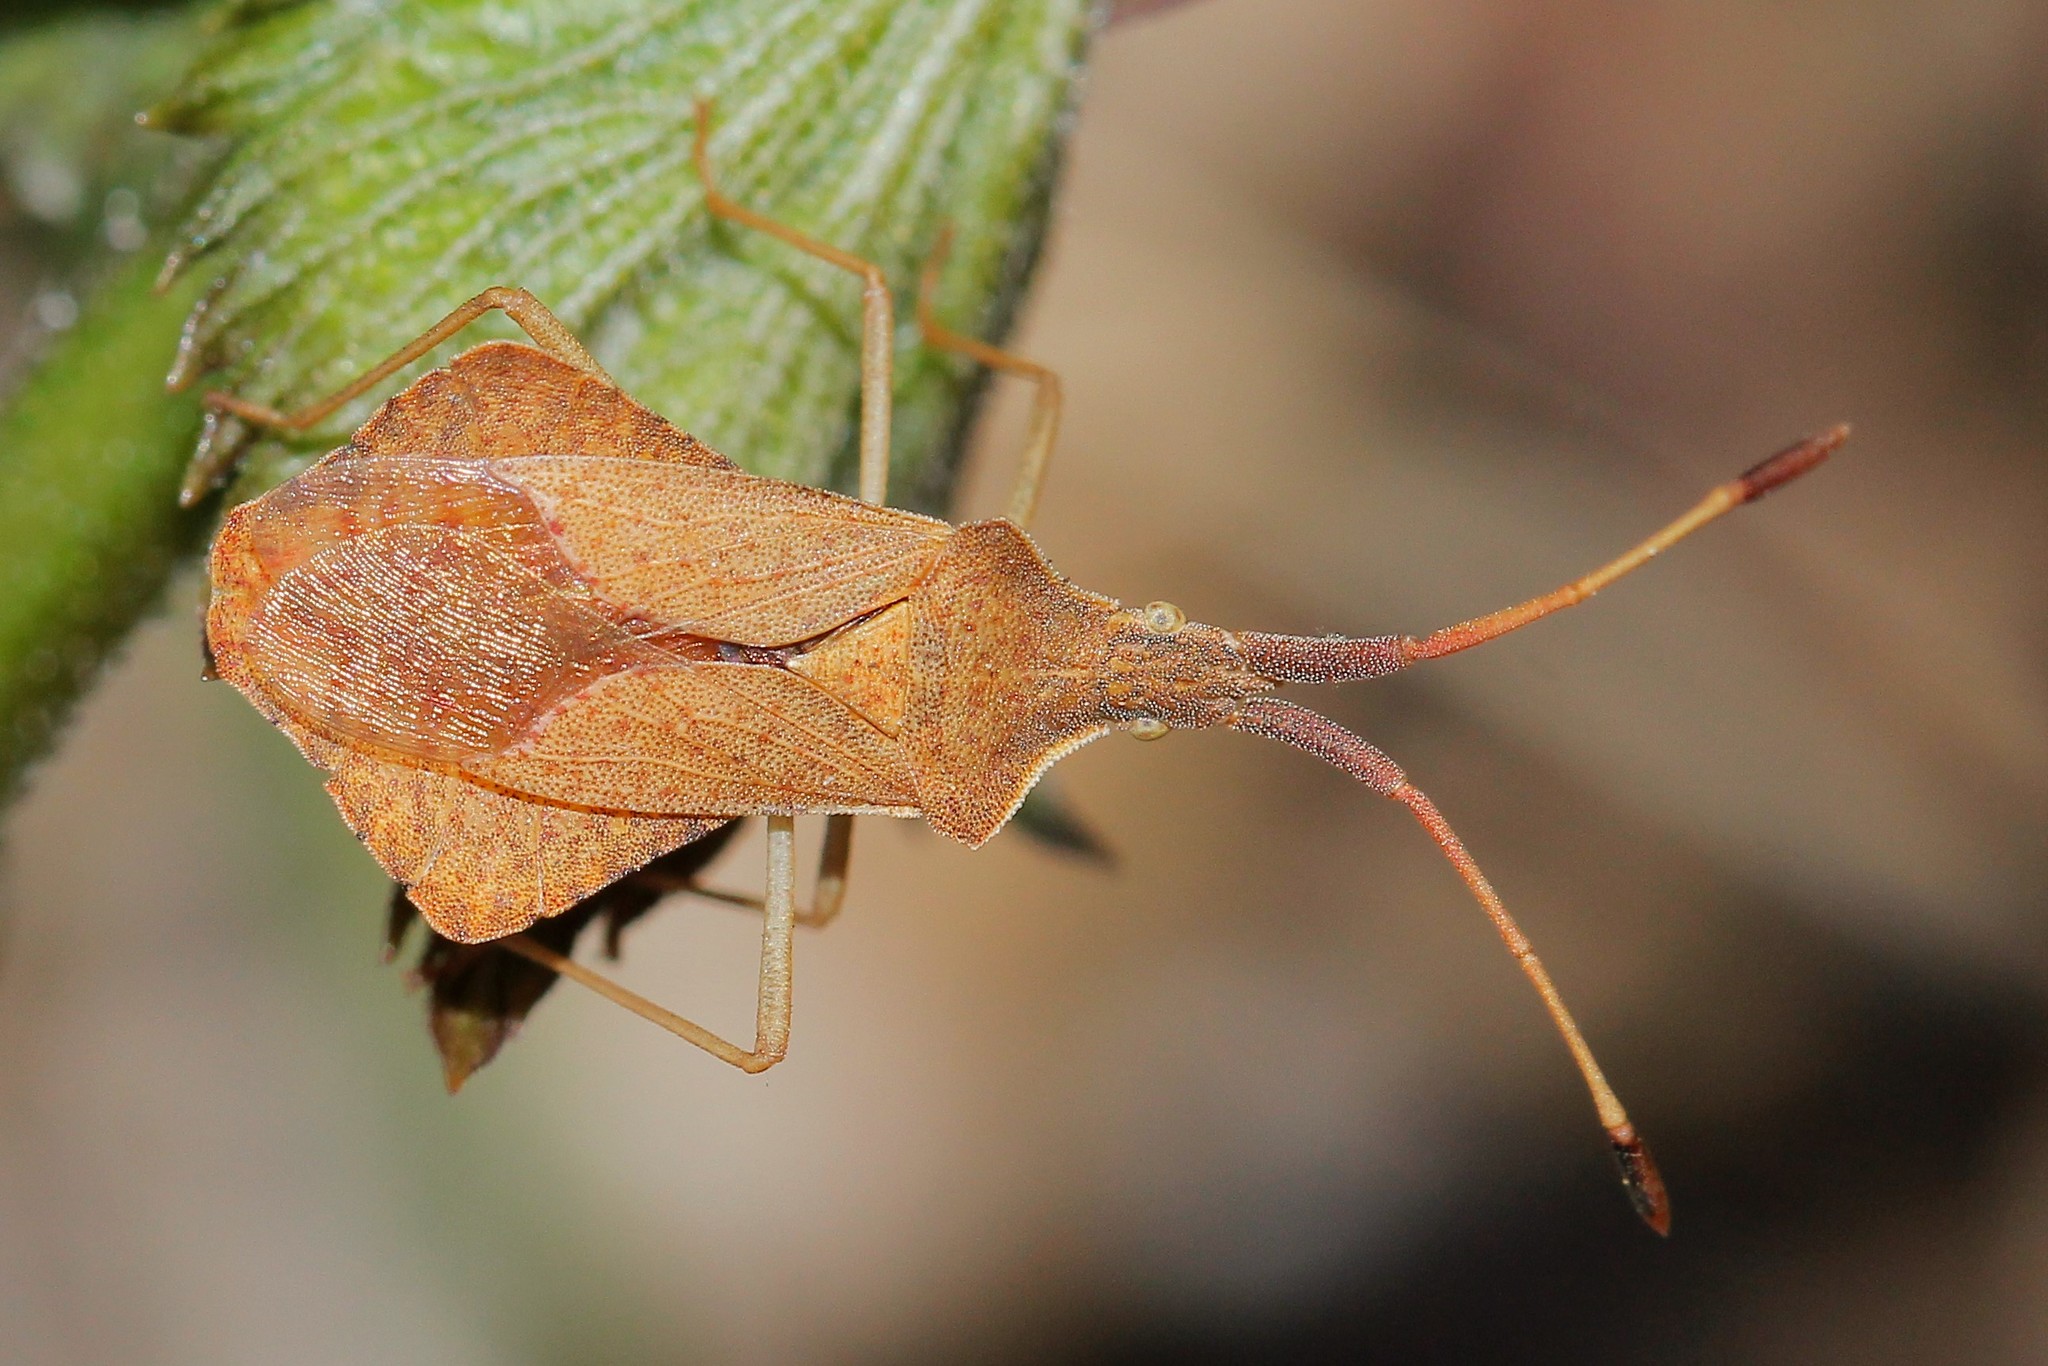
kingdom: Animalia
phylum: Arthropoda
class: Insecta
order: Hemiptera
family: Coreidae
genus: Syromastus
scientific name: Syromastus rhombeus
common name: Rhombic leatherbug
